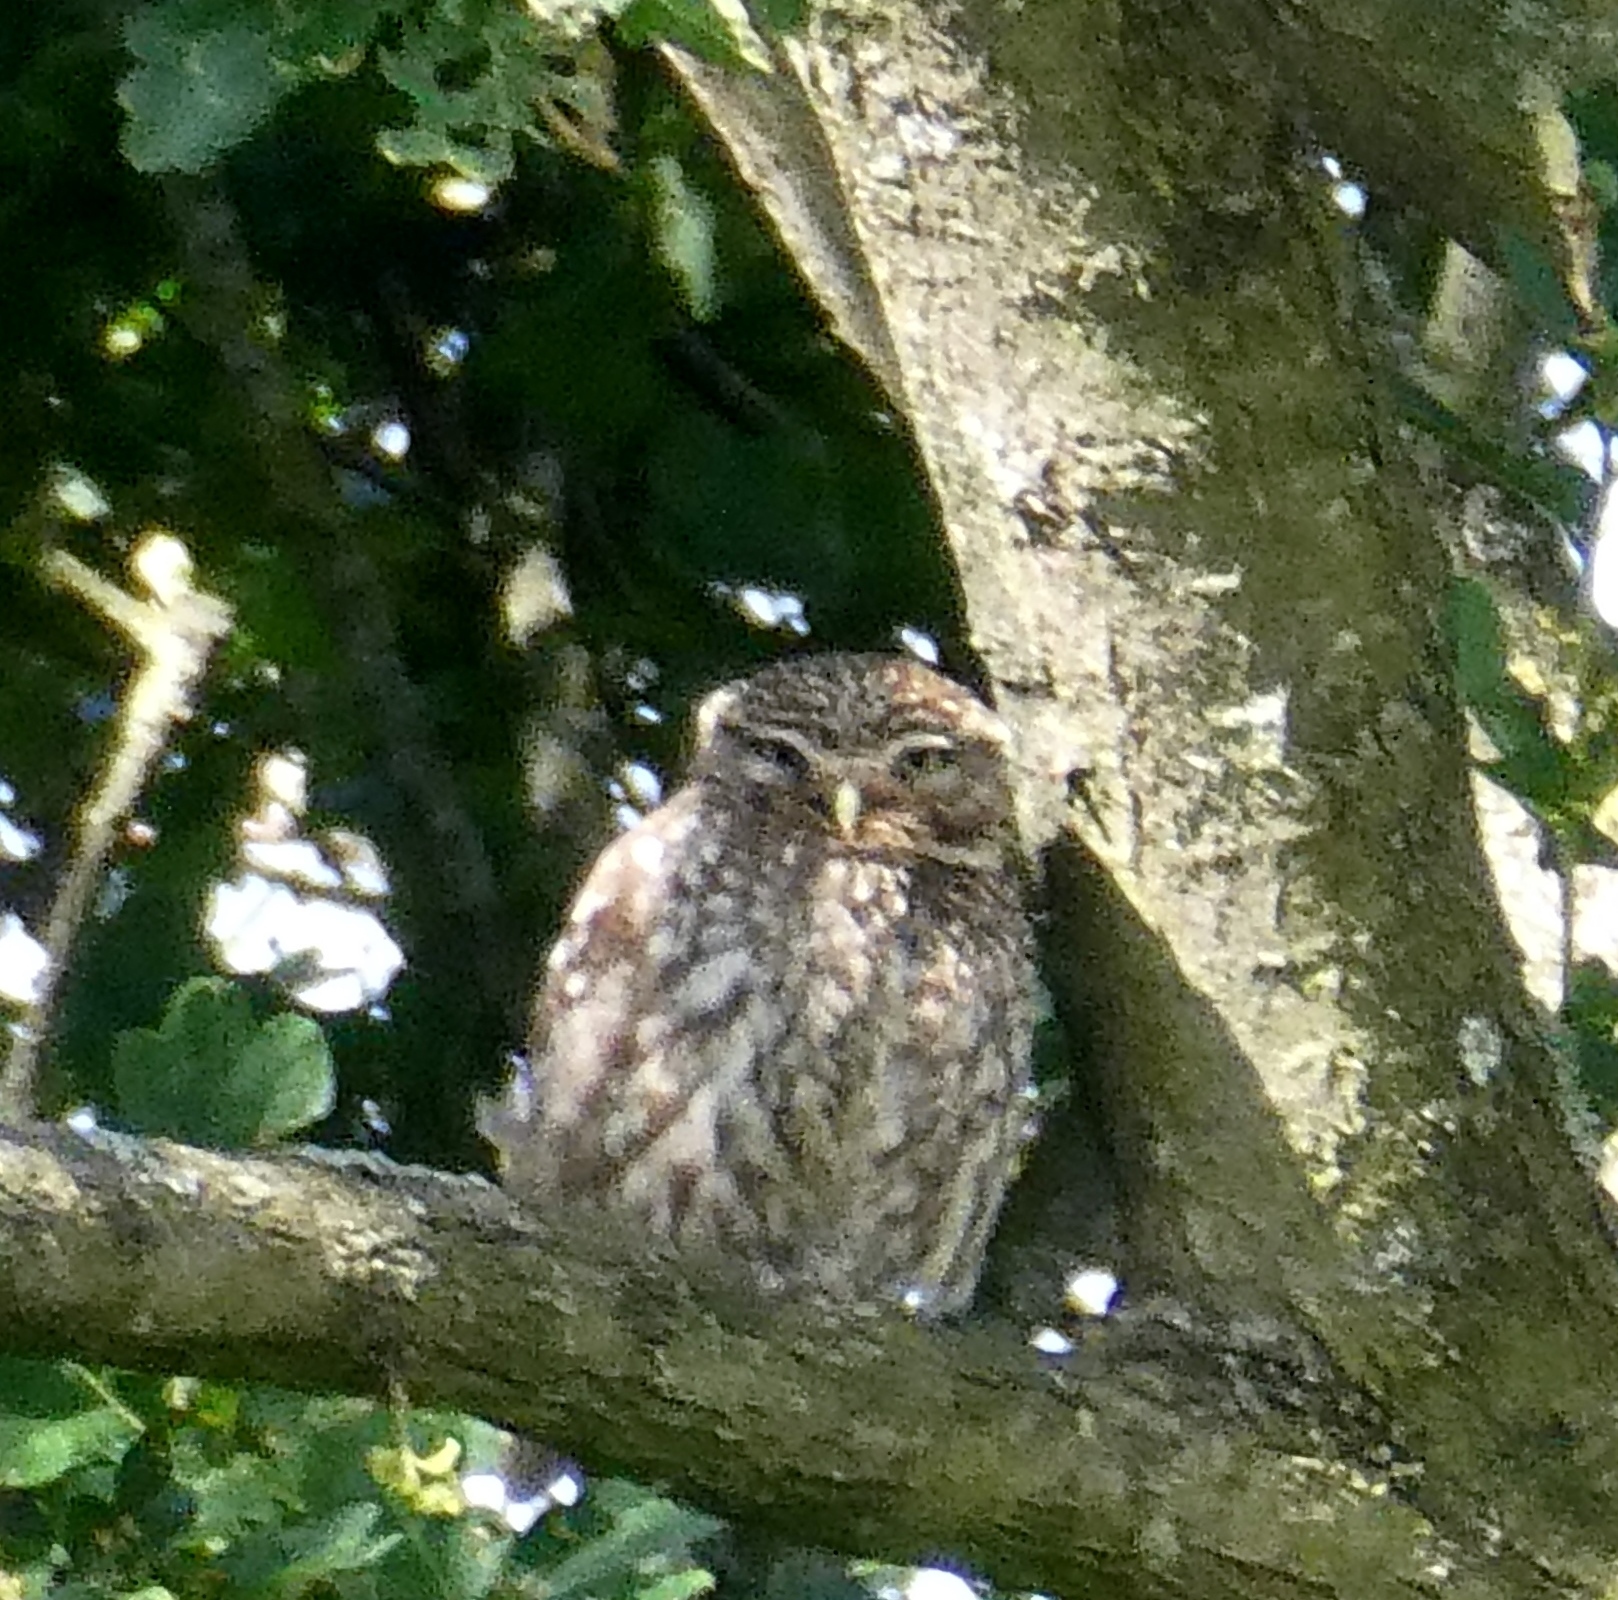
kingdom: Animalia
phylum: Chordata
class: Aves
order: Strigiformes
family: Strigidae
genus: Athene
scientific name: Athene noctua
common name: Little owl
